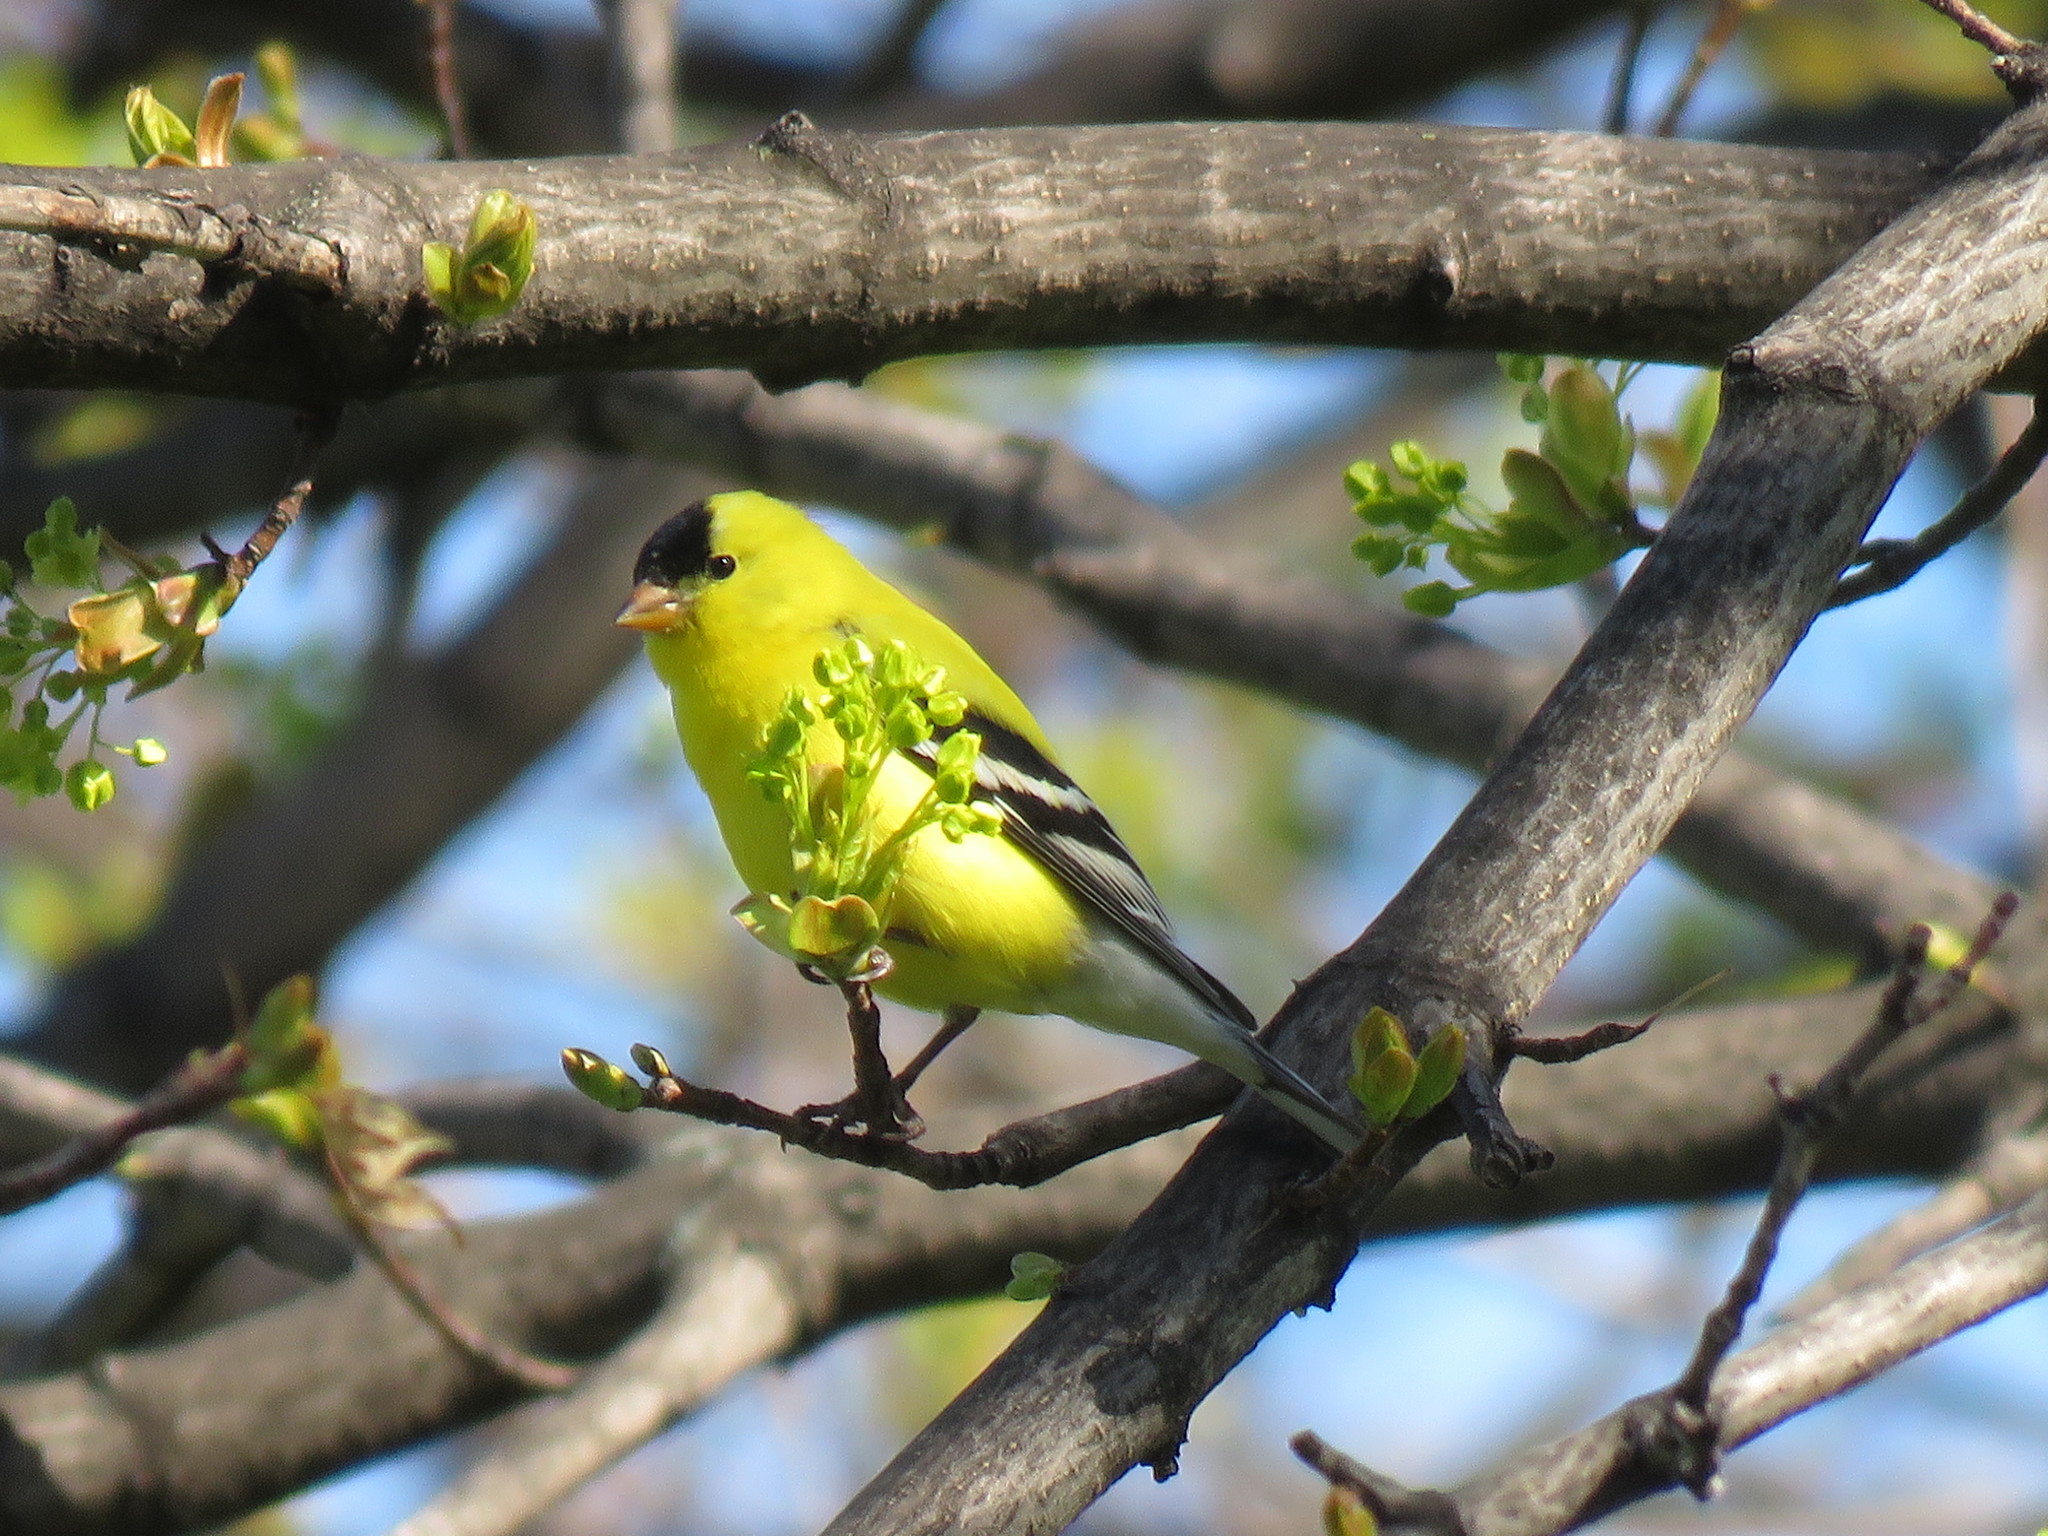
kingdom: Animalia
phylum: Chordata
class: Aves
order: Passeriformes
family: Fringillidae
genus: Spinus
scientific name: Spinus tristis
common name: American goldfinch
